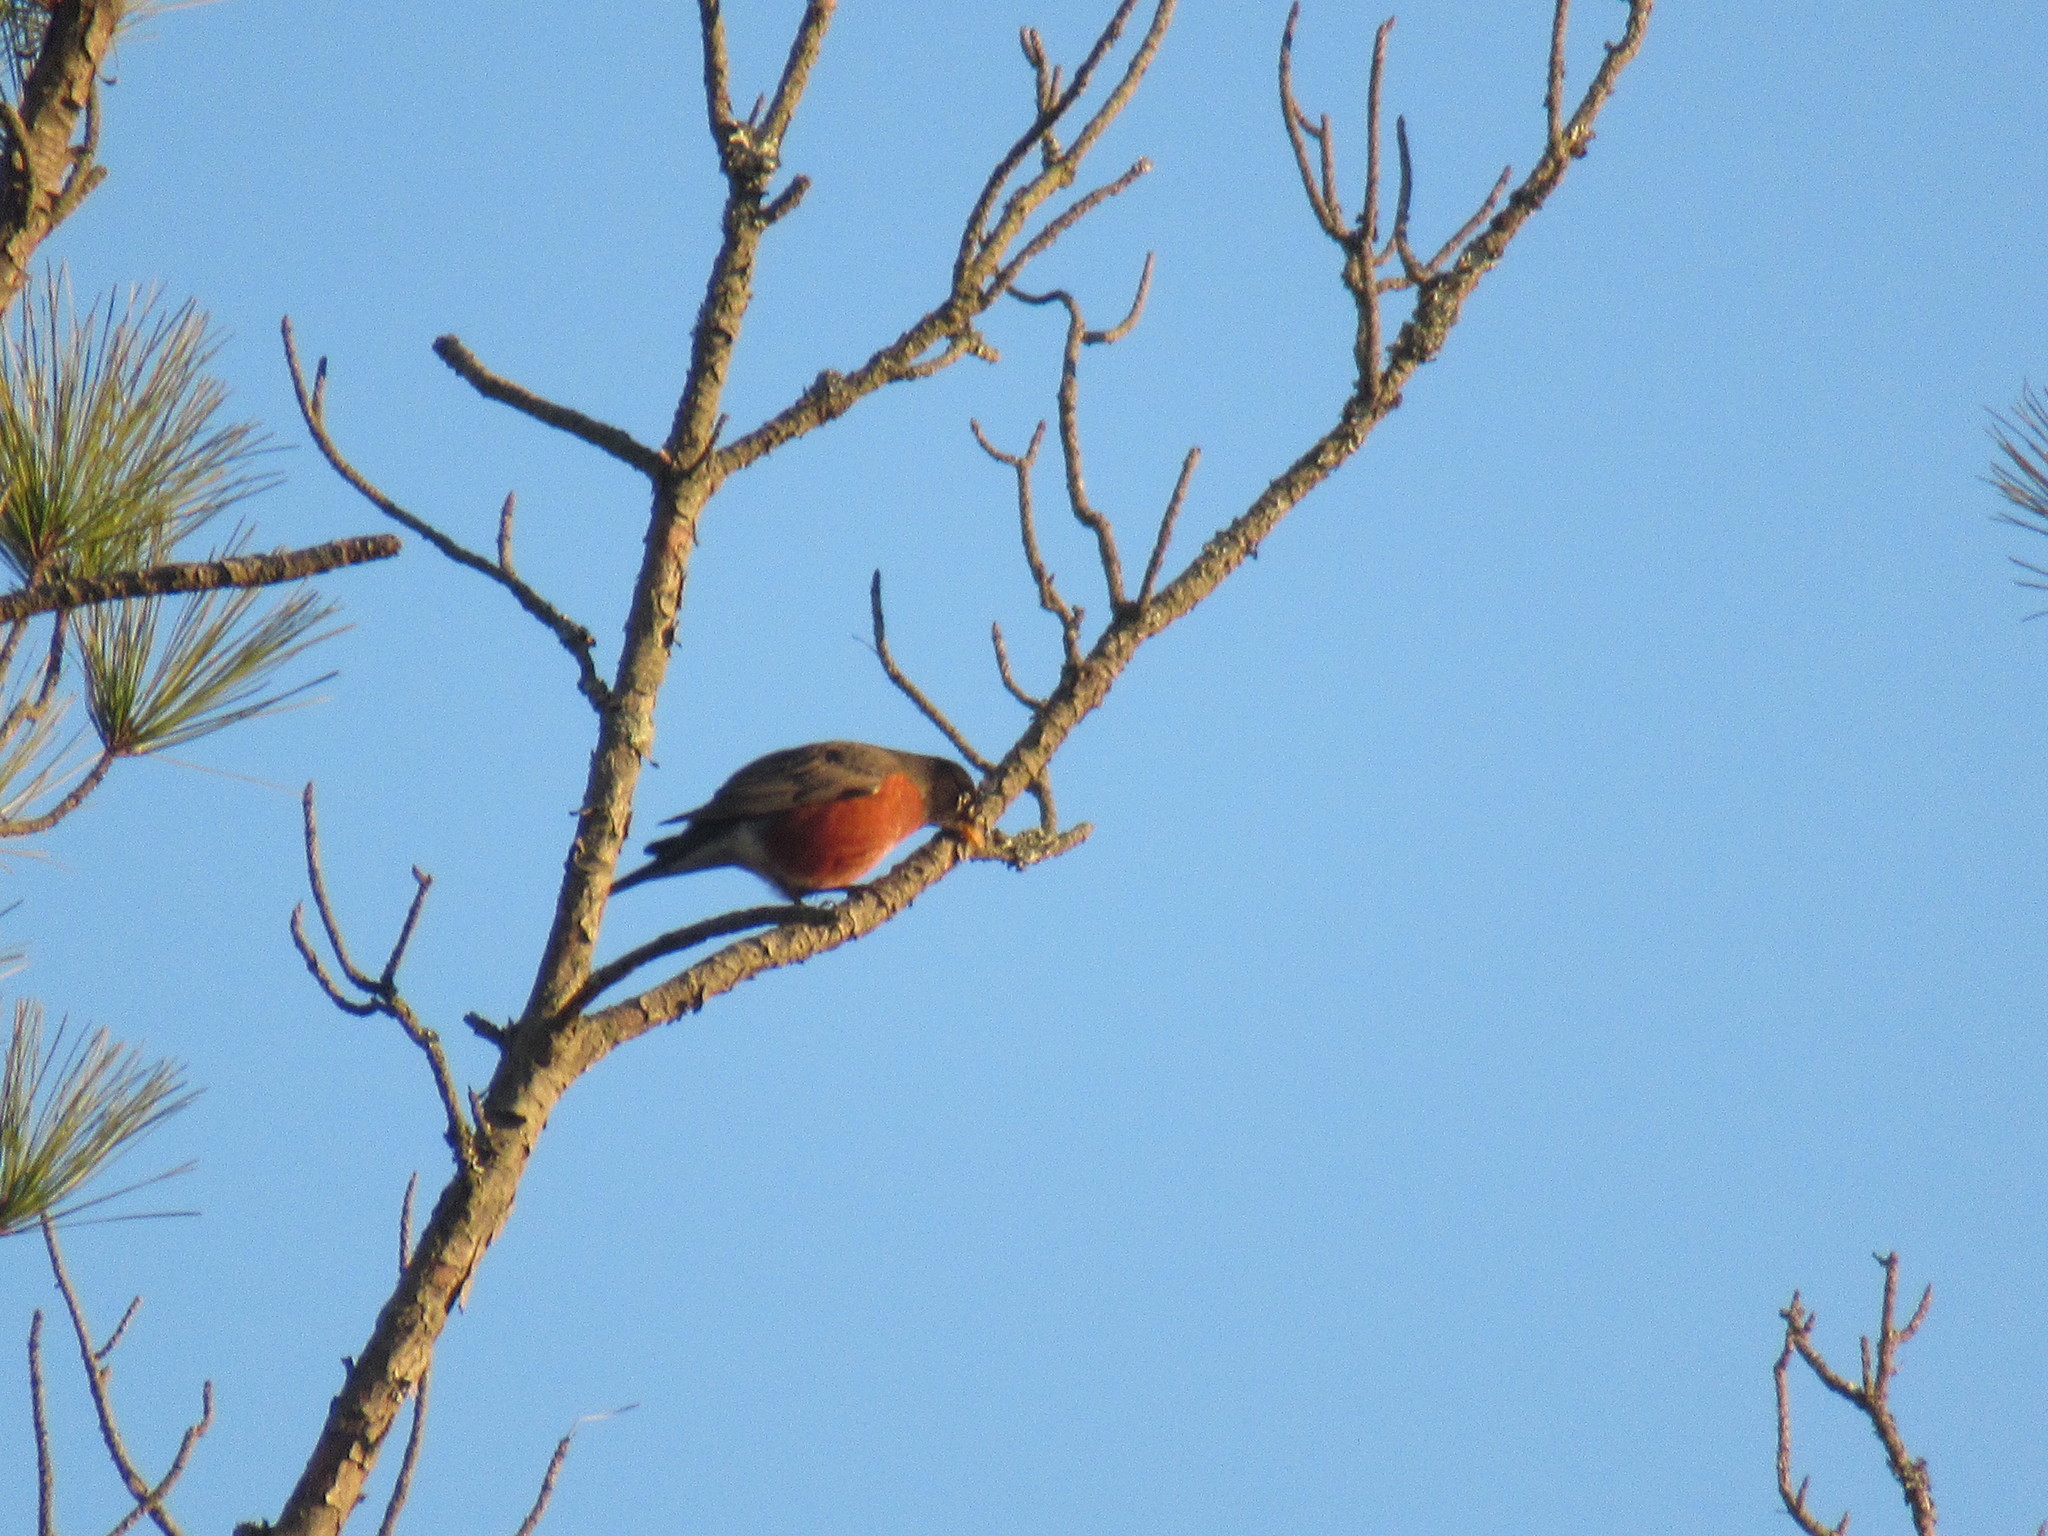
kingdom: Animalia
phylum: Chordata
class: Aves
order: Passeriformes
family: Turdidae
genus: Turdus
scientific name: Turdus migratorius
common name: American robin
